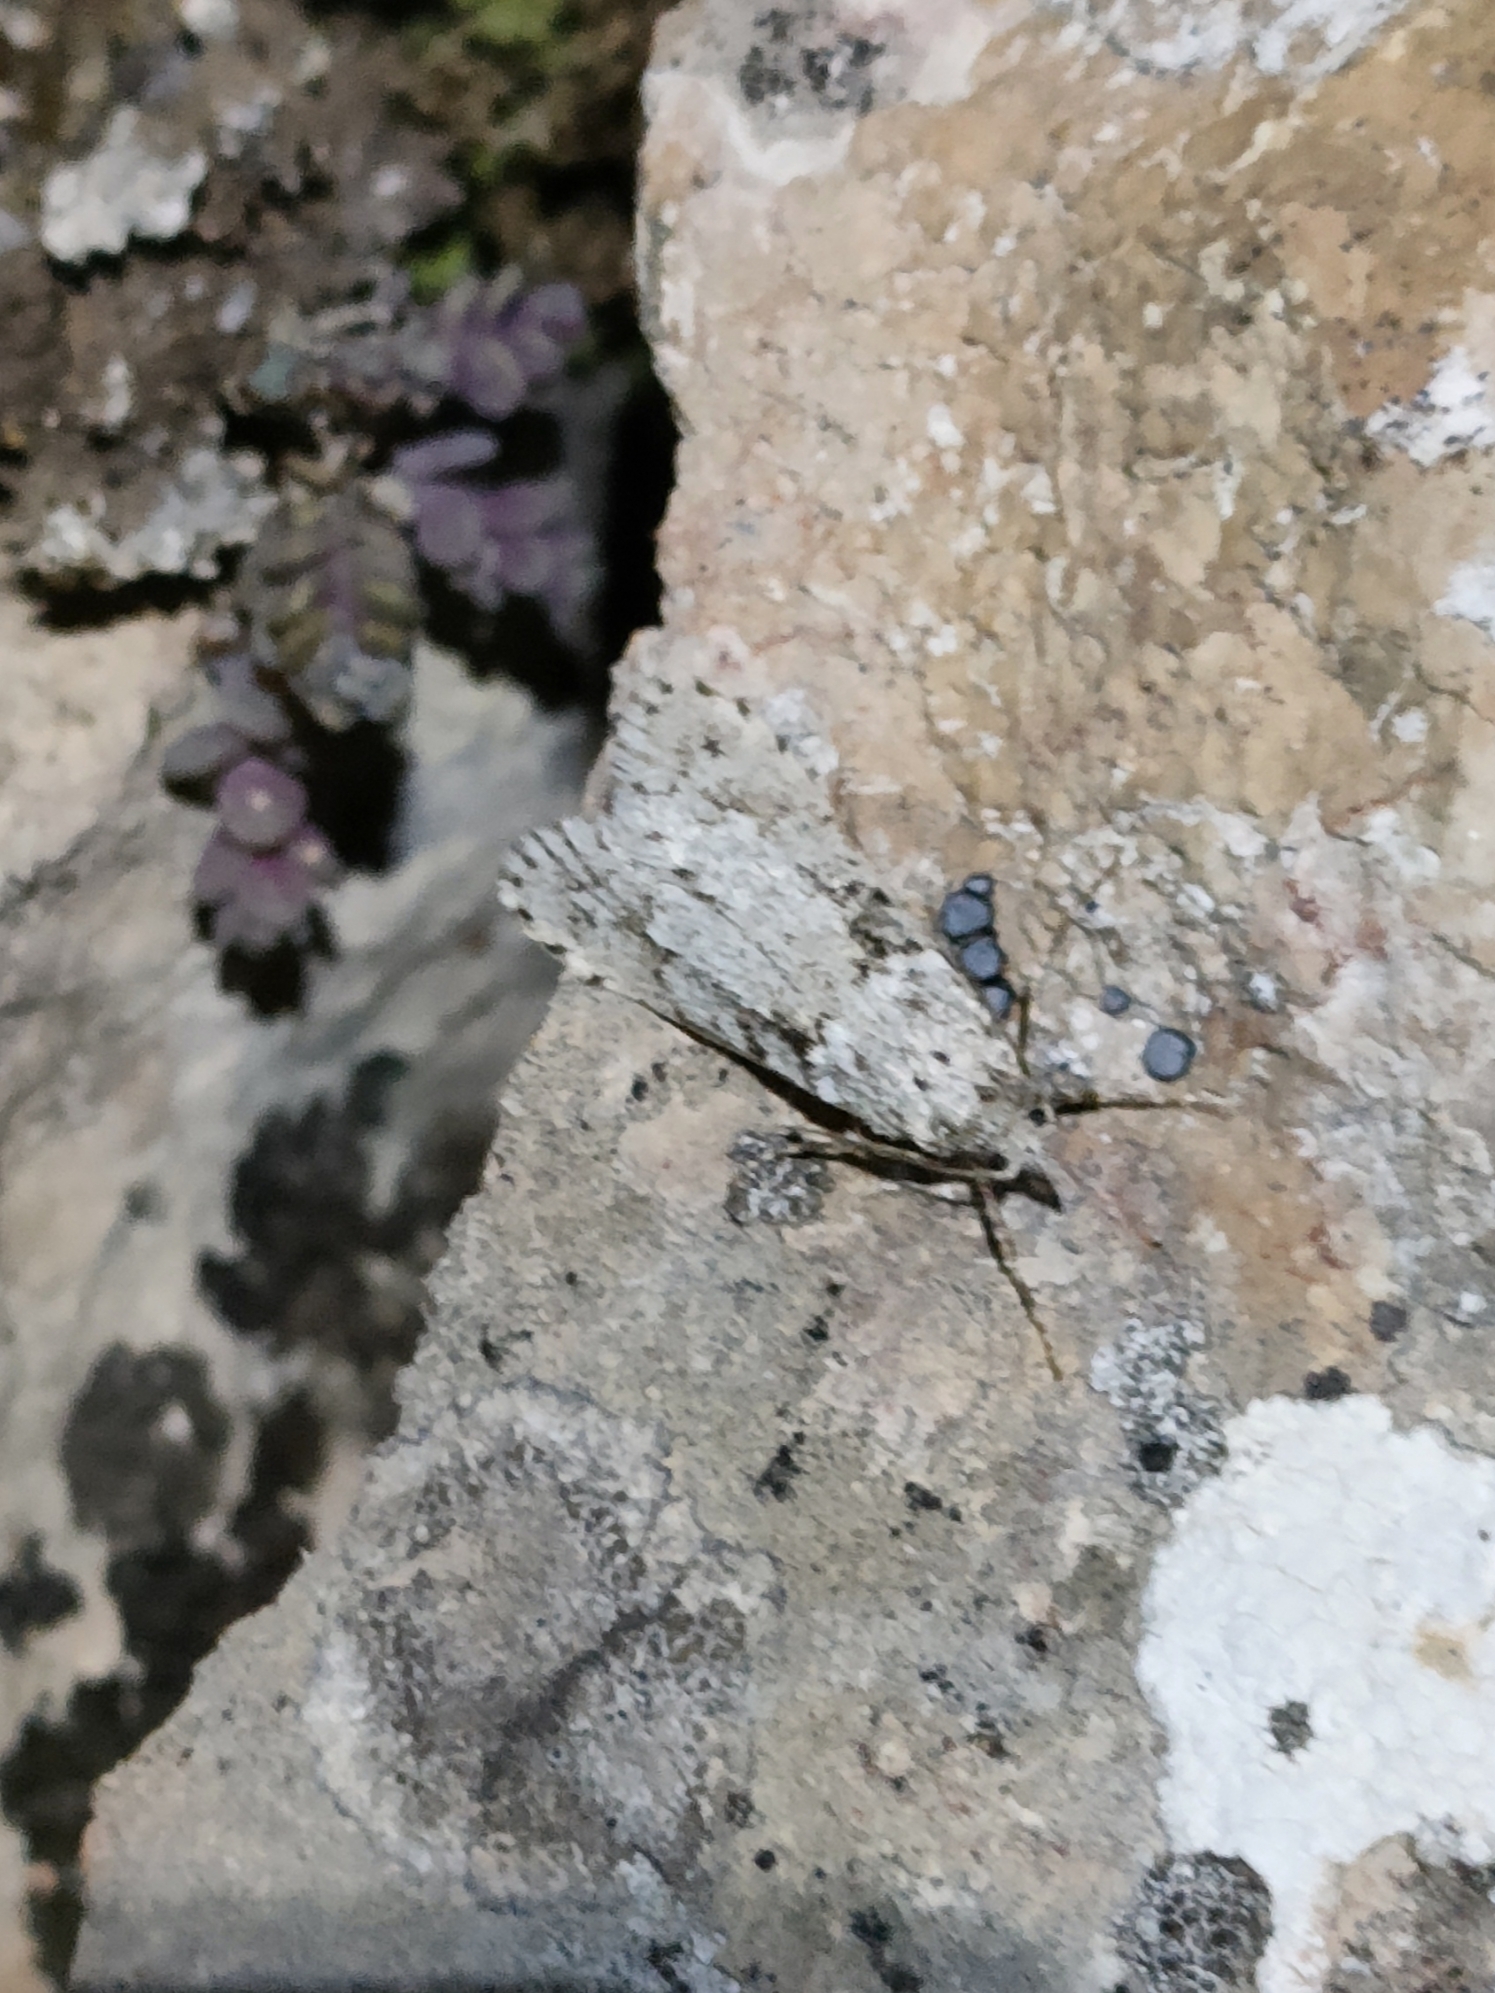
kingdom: Animalia
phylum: Arthropoda
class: Insecta
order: Lepidoptera
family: Lypusidae
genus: Diurnea
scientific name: Diurnea fagella
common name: March tubic
